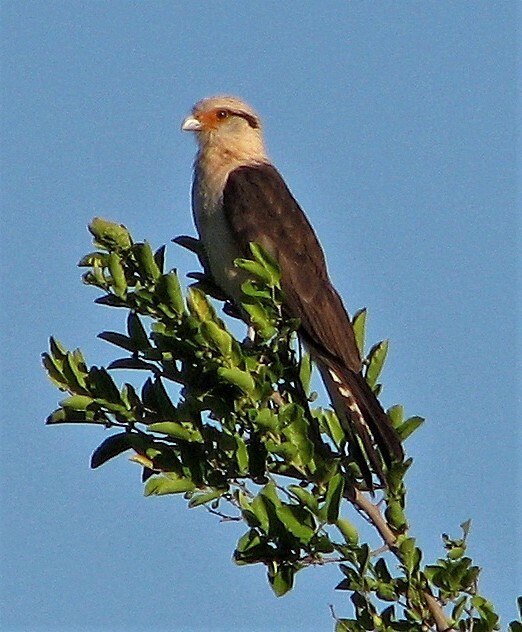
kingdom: Animalia
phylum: Chordata
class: Aves
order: Falconiformes
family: Falconidae
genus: Daptrius
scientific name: Daptrius
